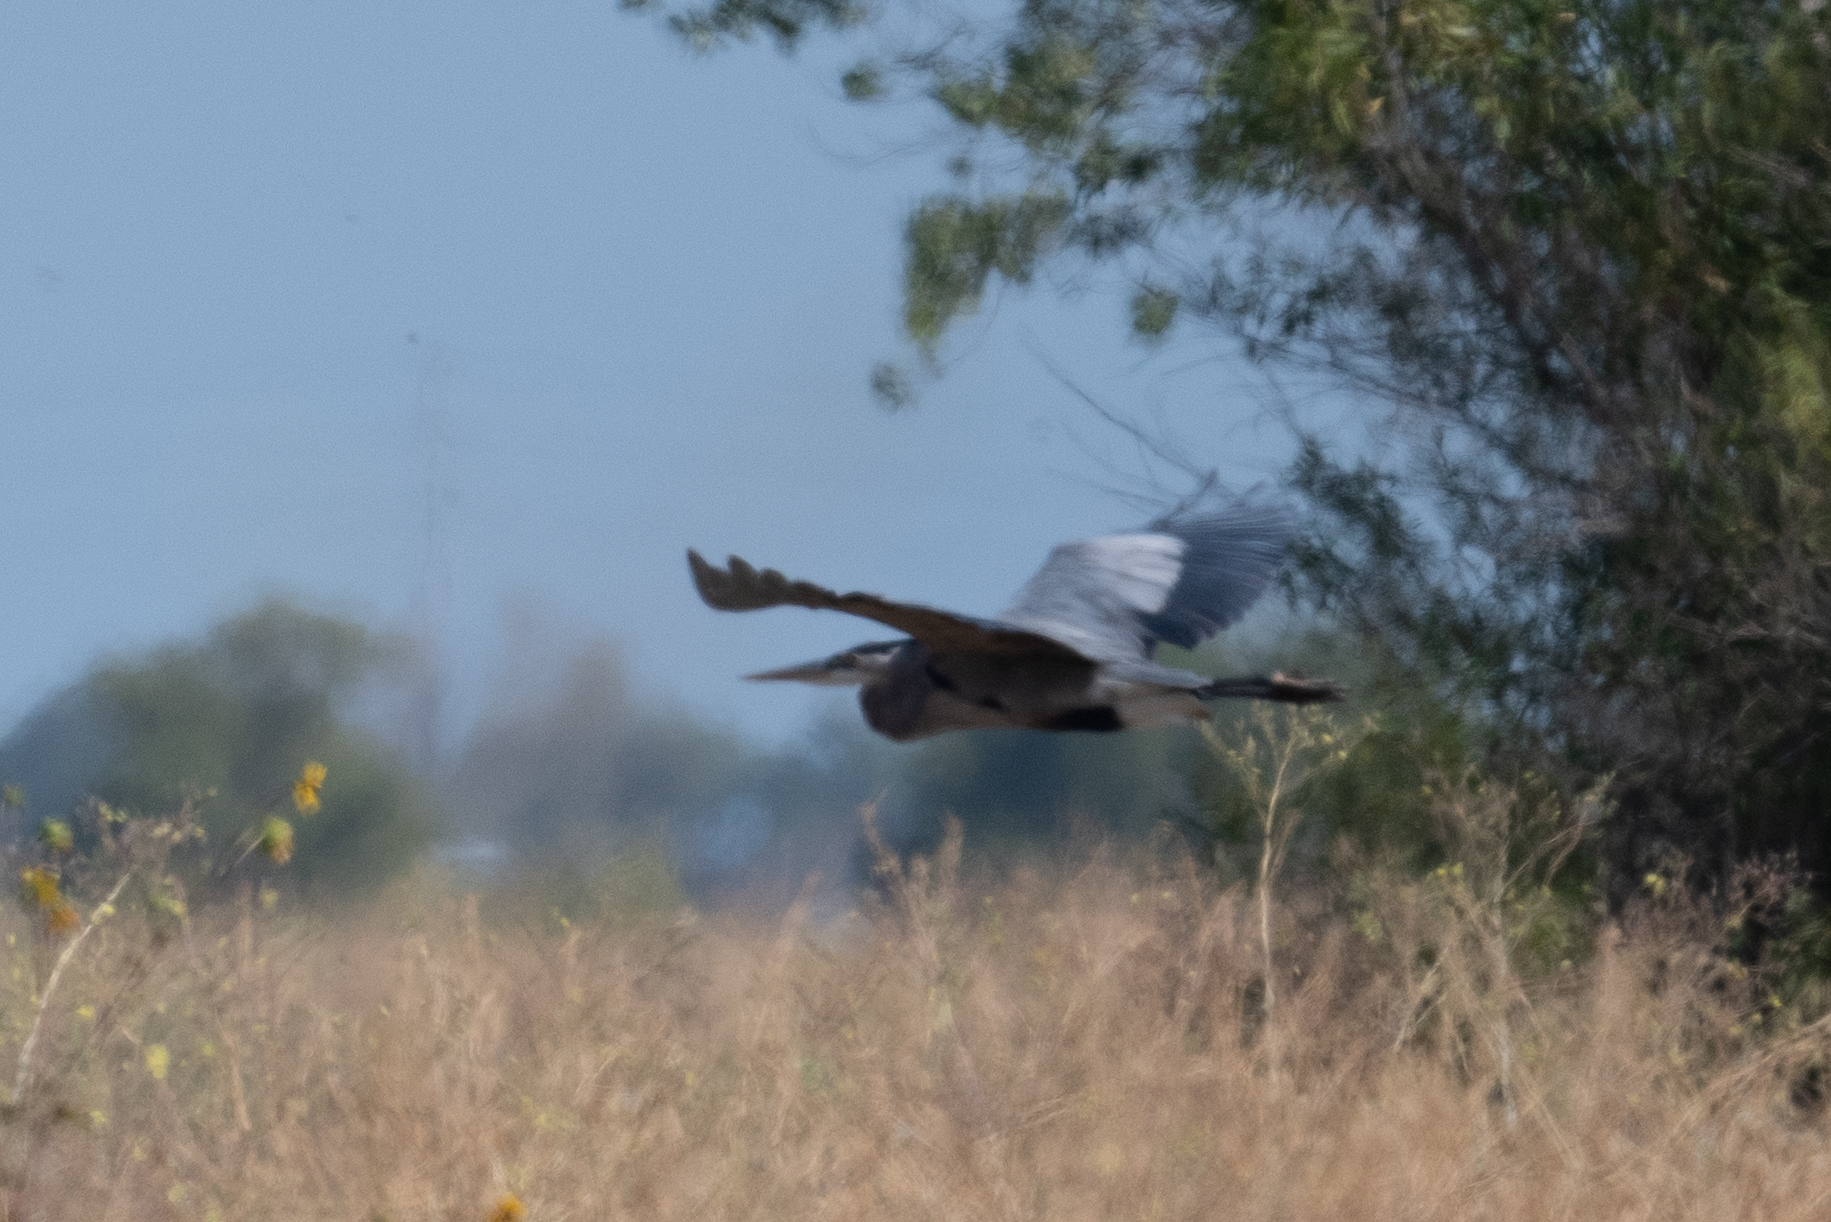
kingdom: Animalia
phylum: Chordata
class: Aves
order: Pelecaniformes
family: Ardeidae
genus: Ardea
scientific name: Ardea herodias
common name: Great blue heron
